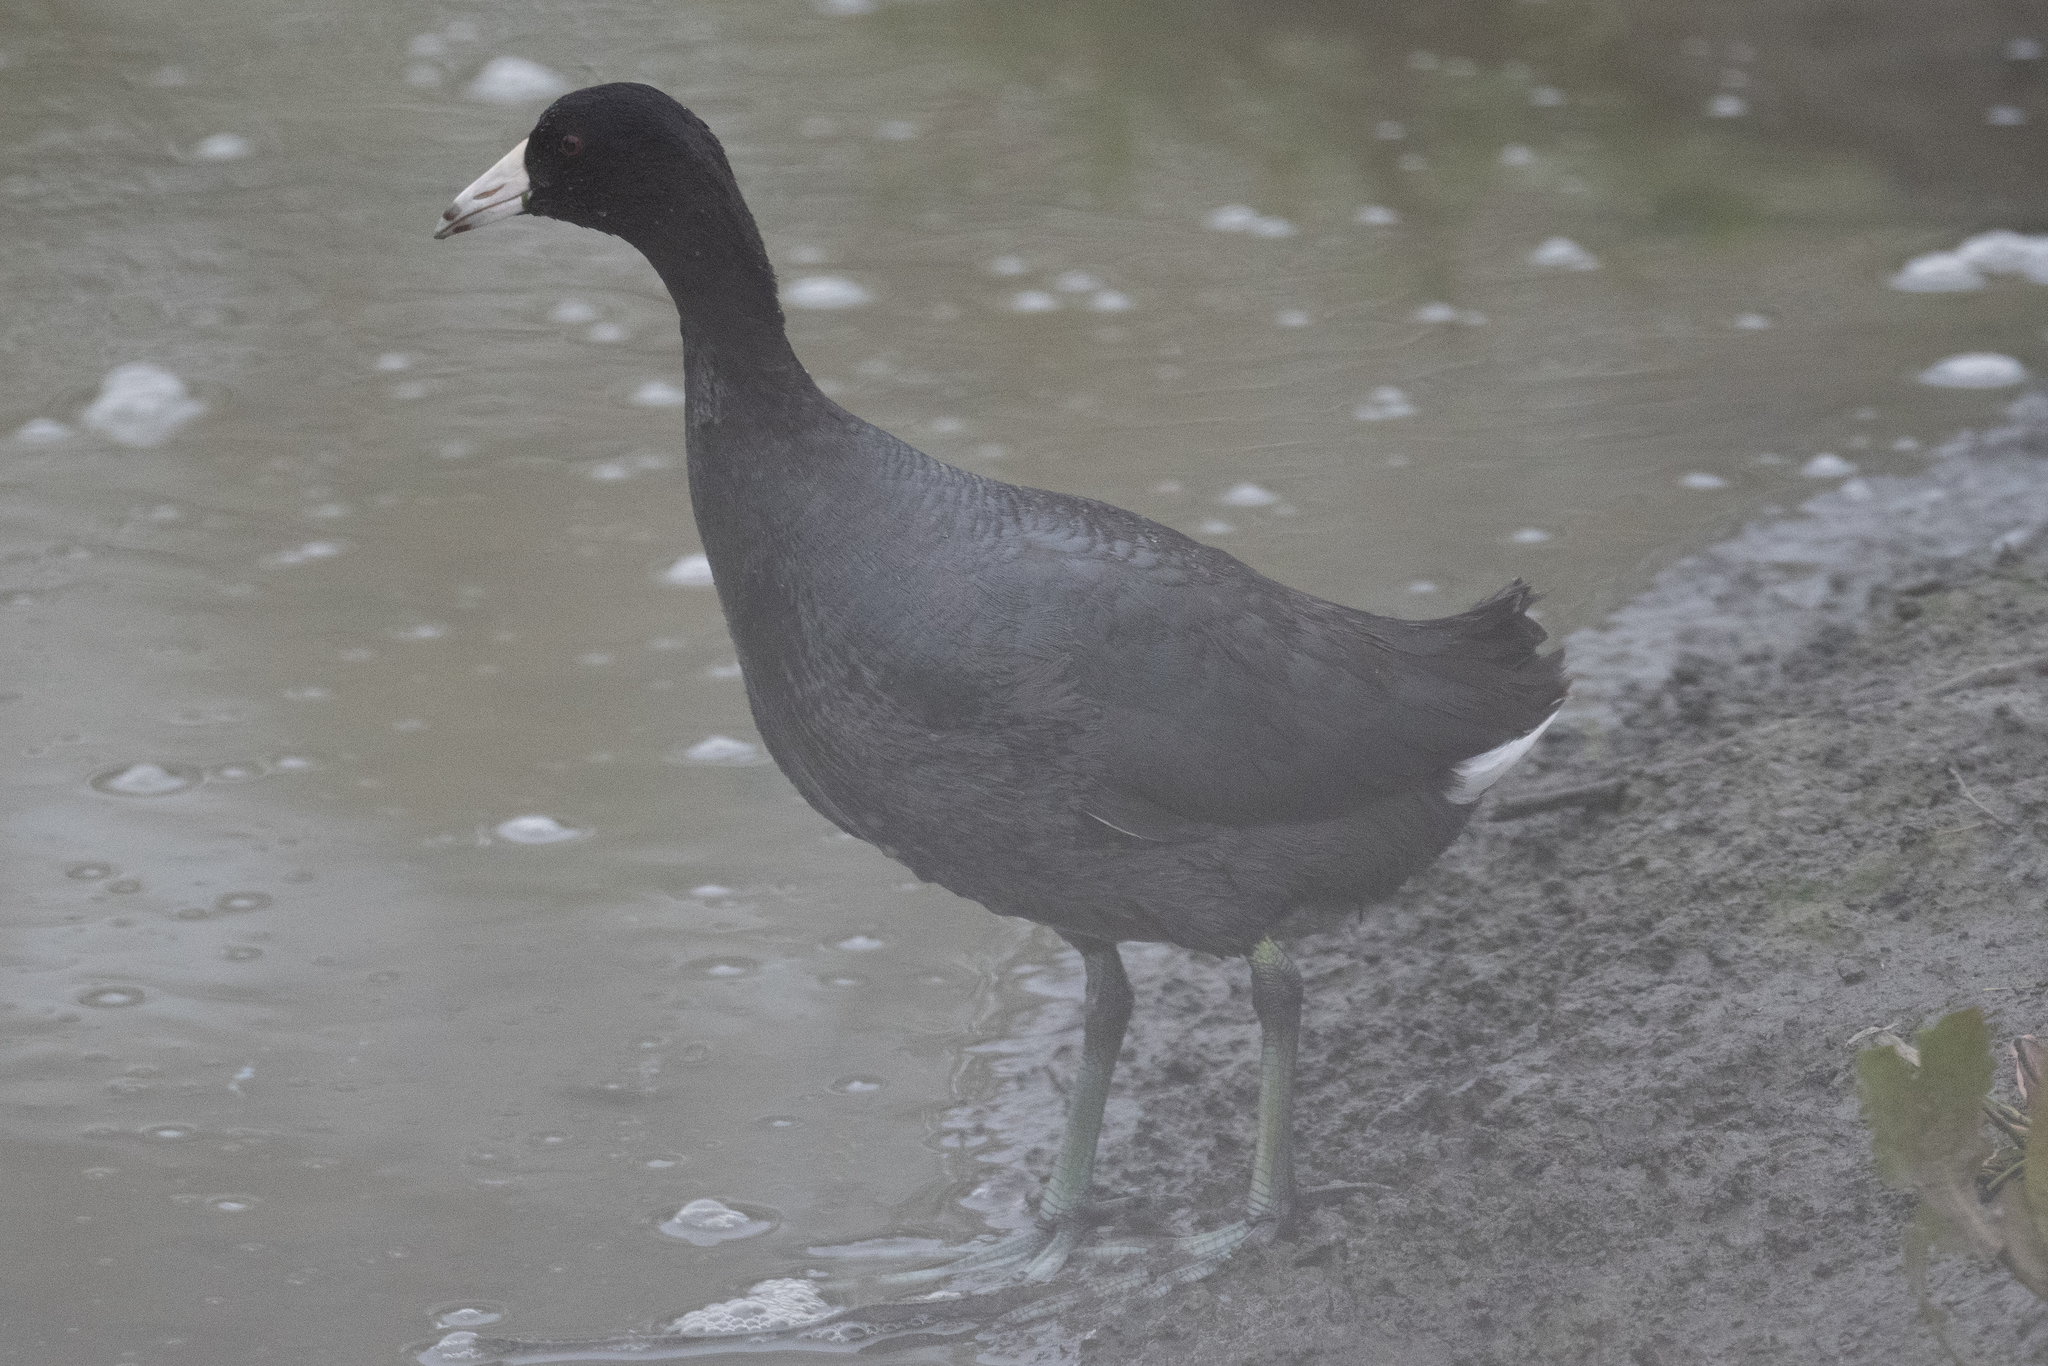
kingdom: Animalia
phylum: Chordata
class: Aves
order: Gruiformes
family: Rallidae
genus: Fulica
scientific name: Fulica americana
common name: American coot
